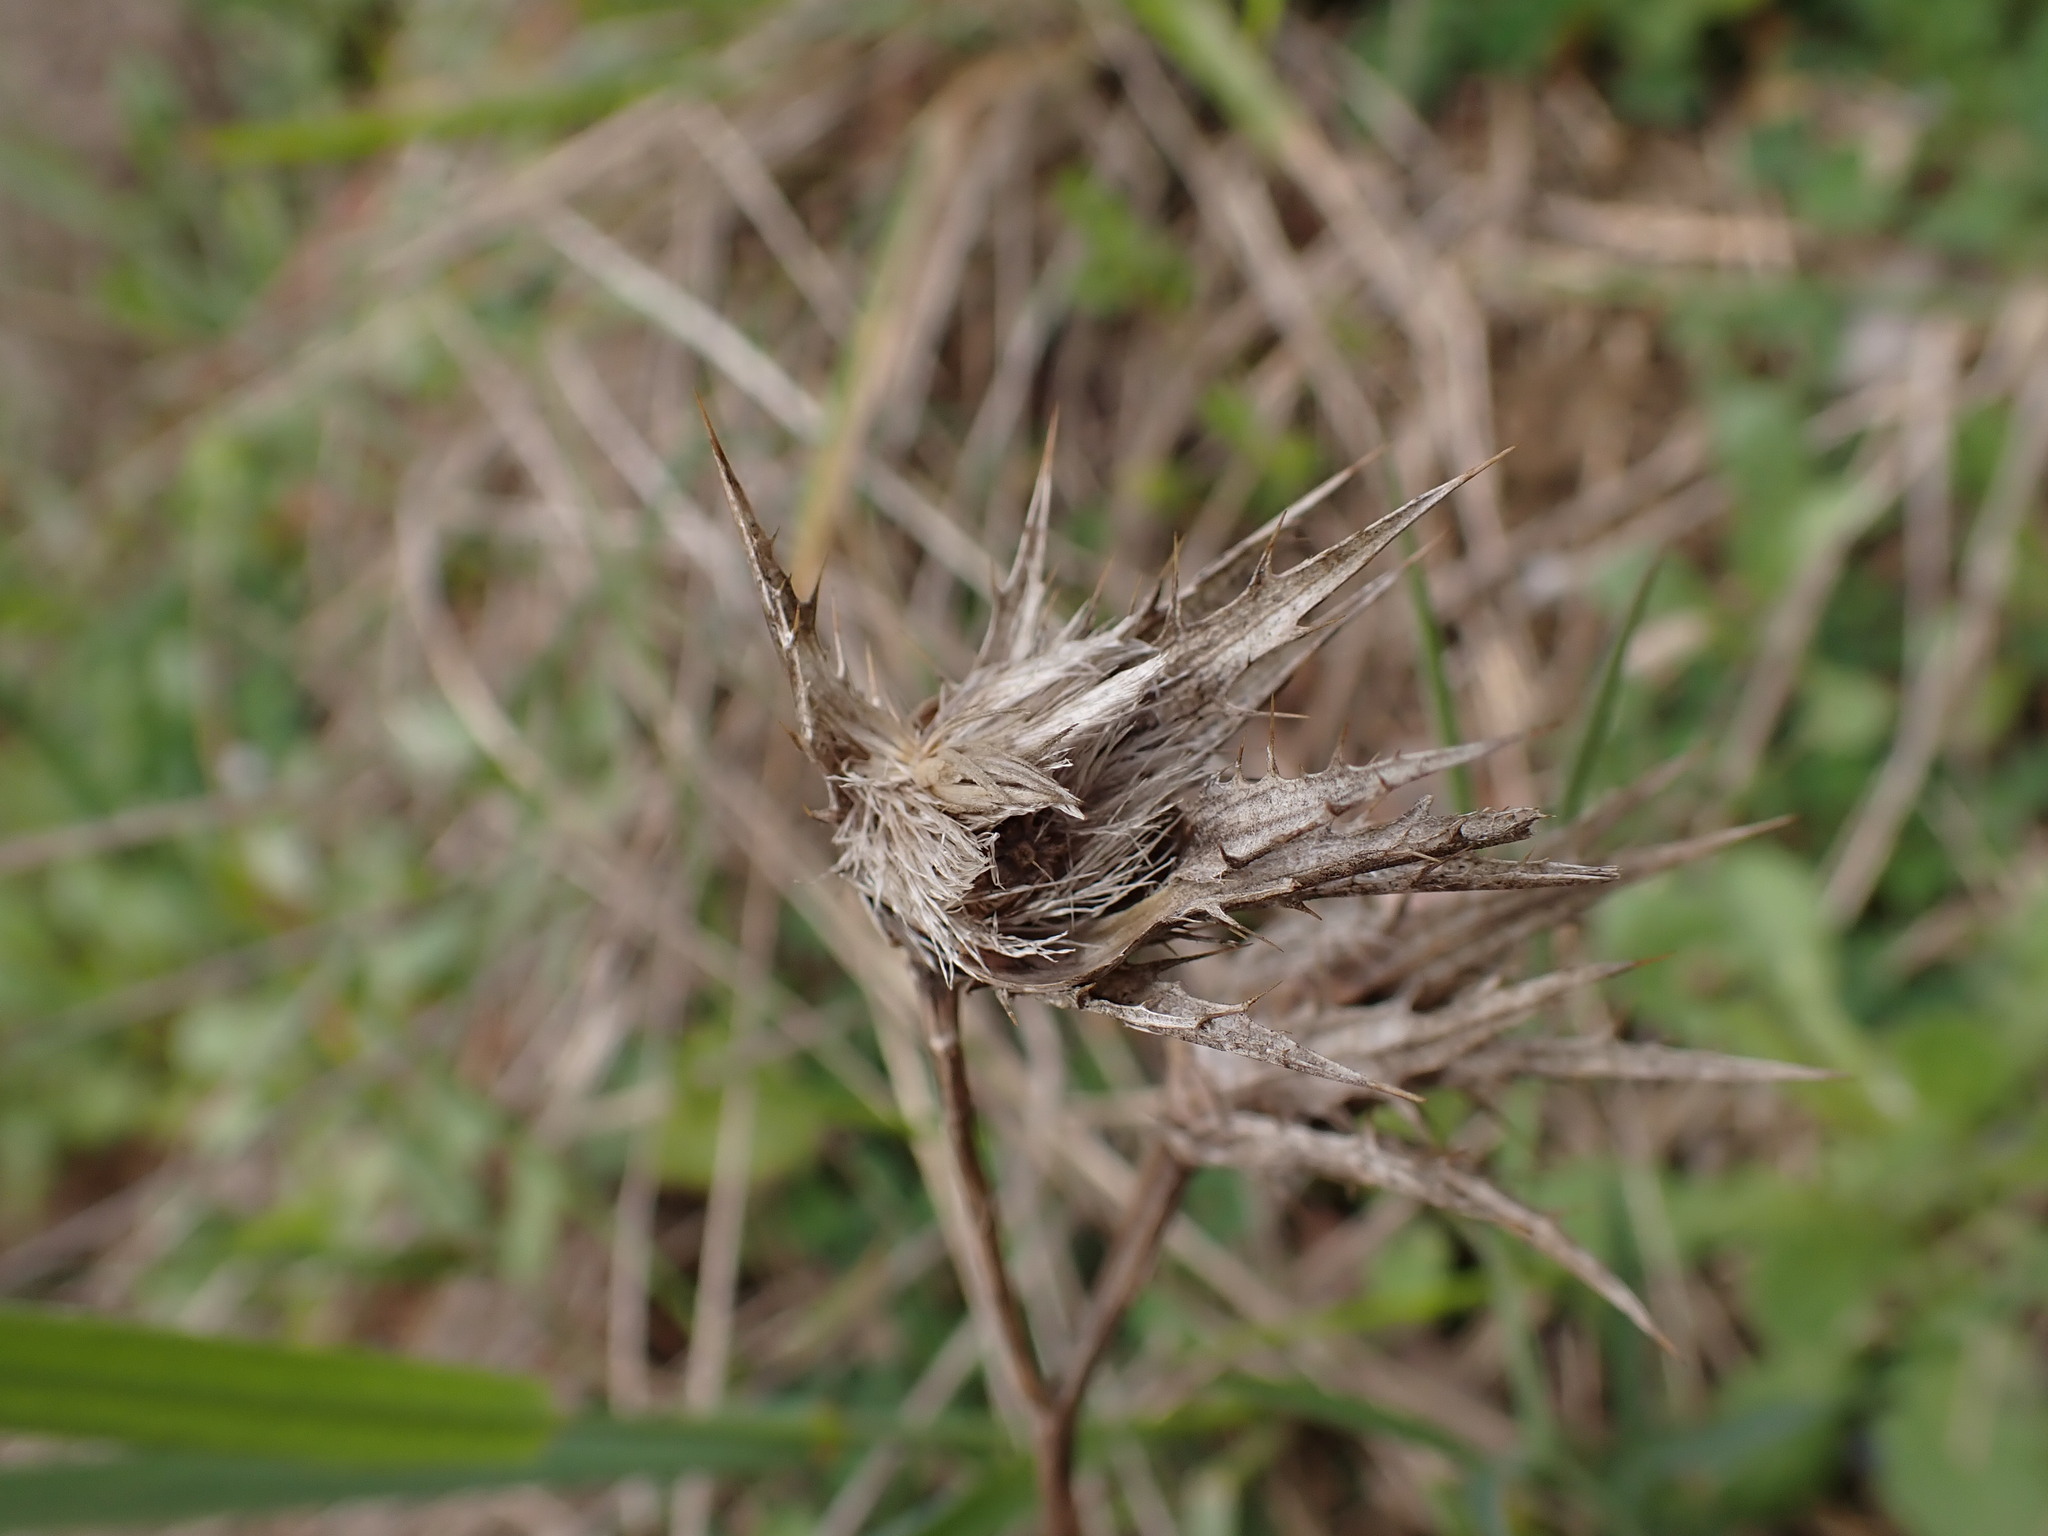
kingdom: Plantae
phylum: Tracheophyta
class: Magnoliopsida
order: Asterales
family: Asteraceae
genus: Carthamus
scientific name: Carthamus lanatus
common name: Downy safflower
